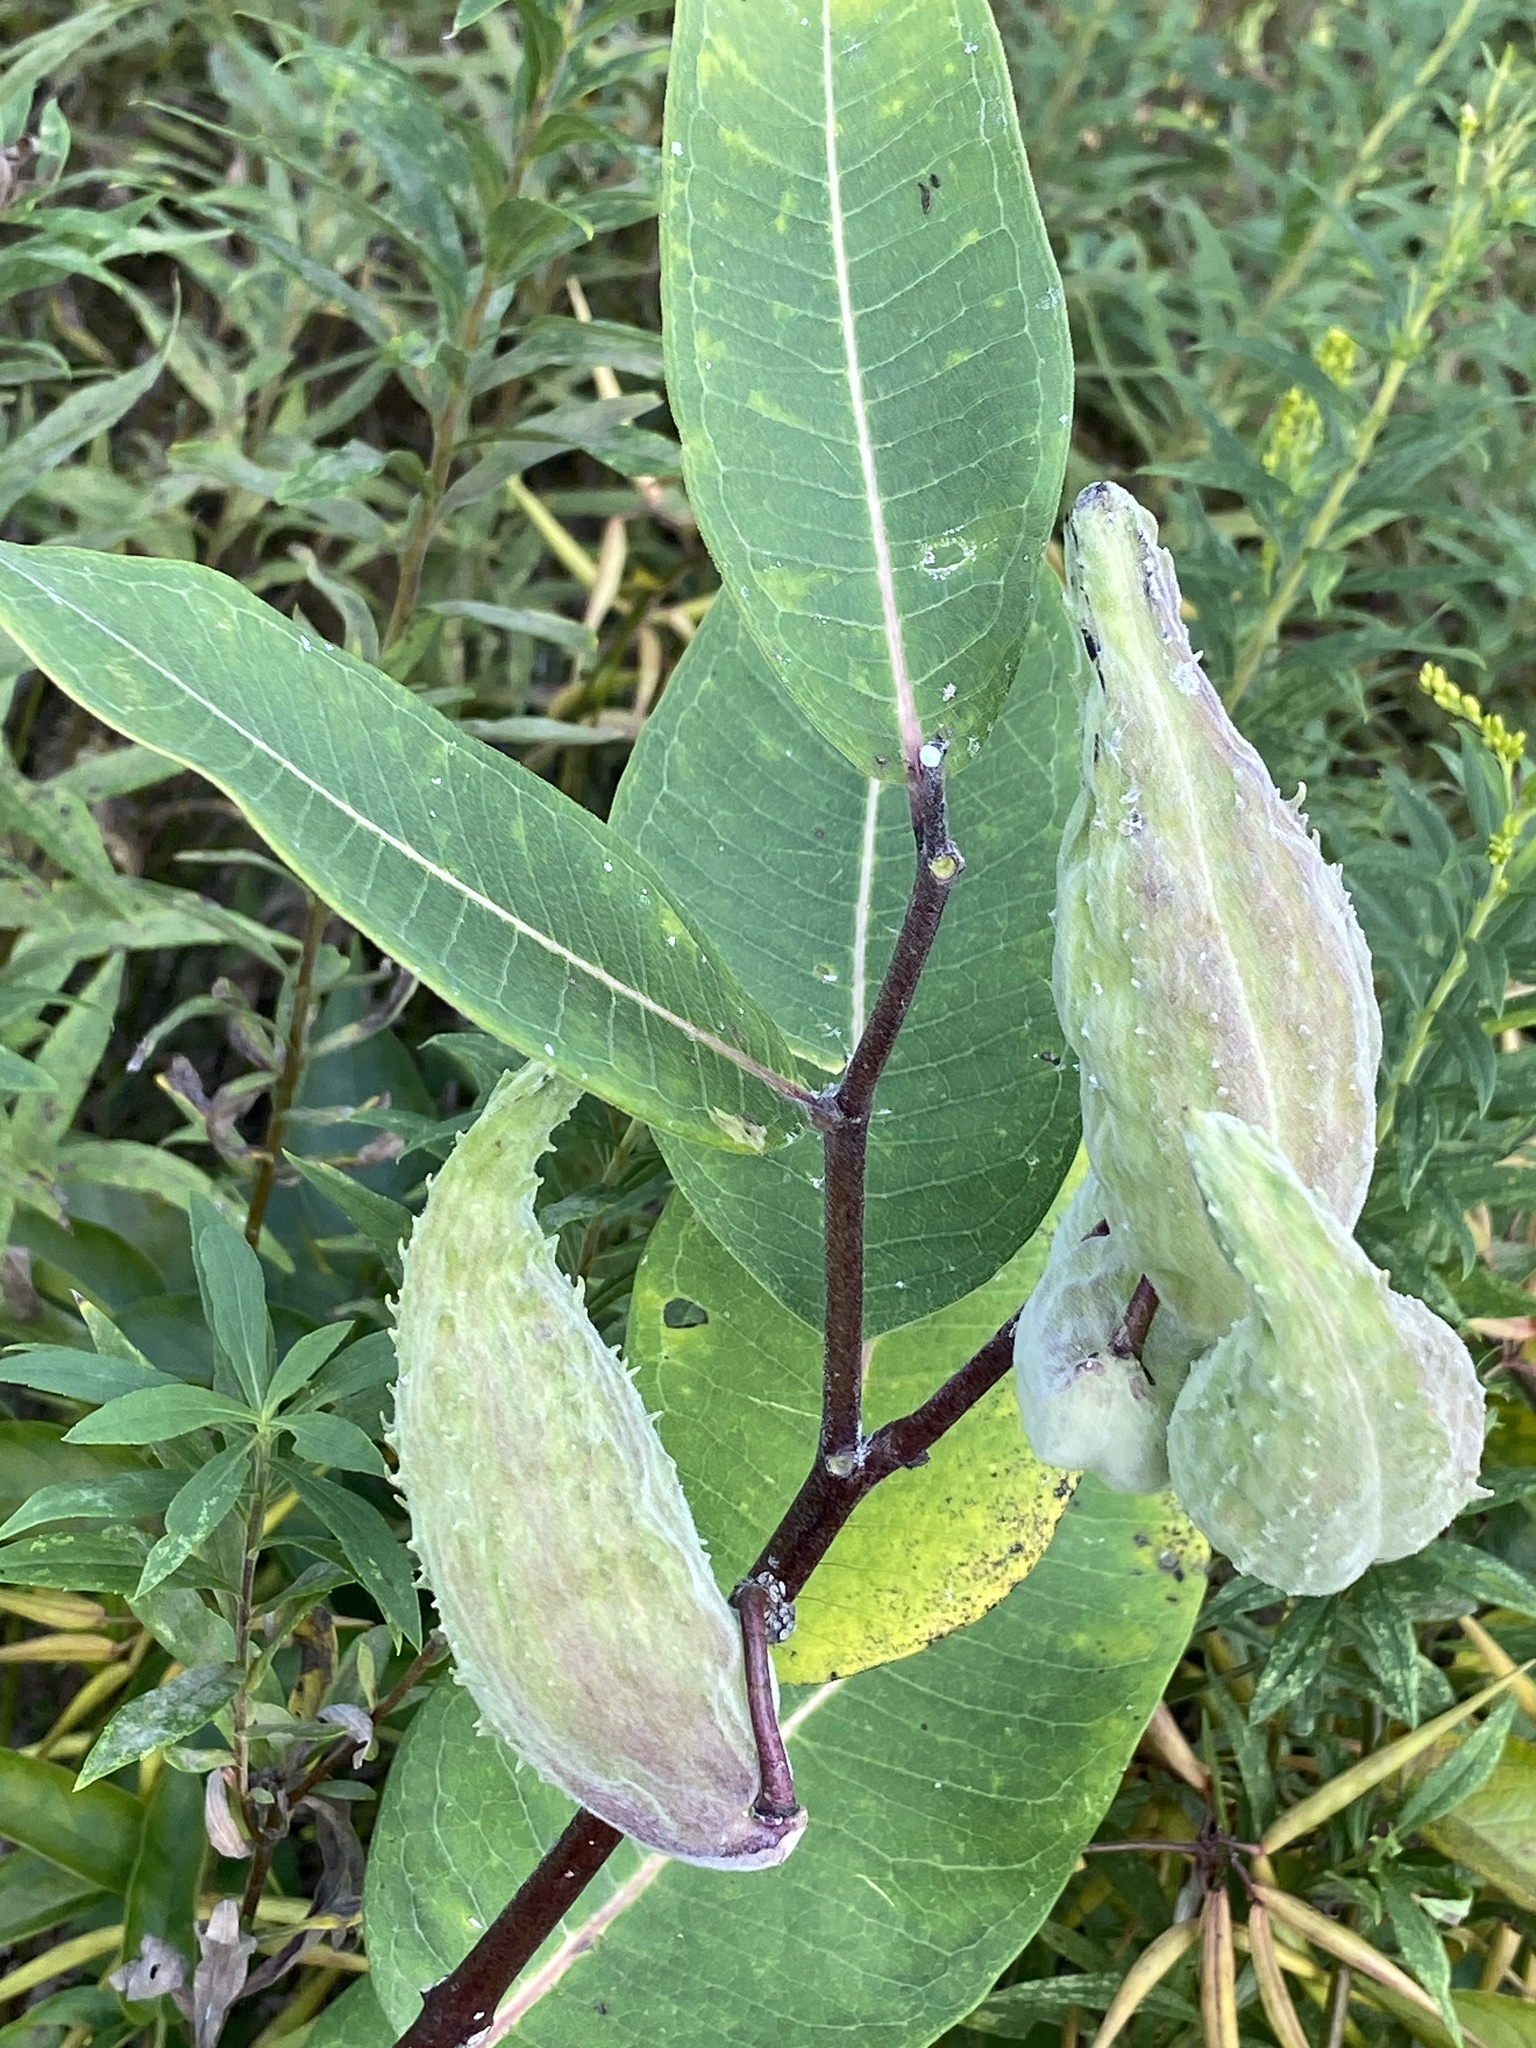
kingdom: Plantae
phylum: Tracheophyta
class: Magnoliopsida
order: Gentianales
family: Apocynaceae
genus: Asclepias
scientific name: Asclepias syriaca
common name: Common milkweed
